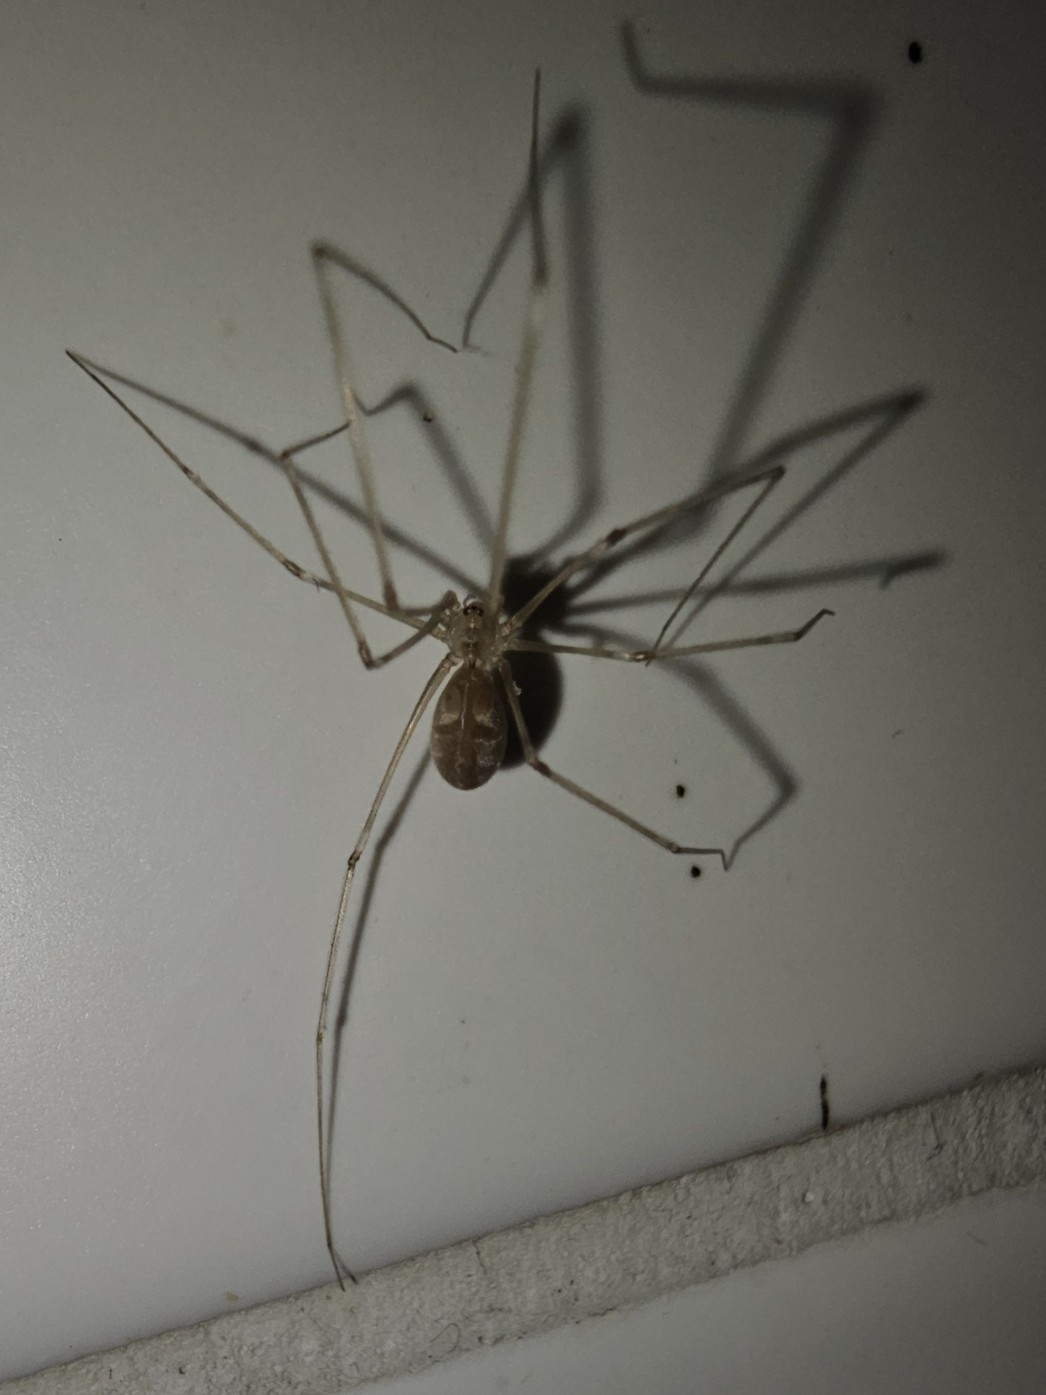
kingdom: Animalia
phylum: Arthropoda
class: Arachnida
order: Araneae
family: Pholcidae
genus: Pholcus
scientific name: Pholcus phalangioides
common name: Longbodied cellar spider
